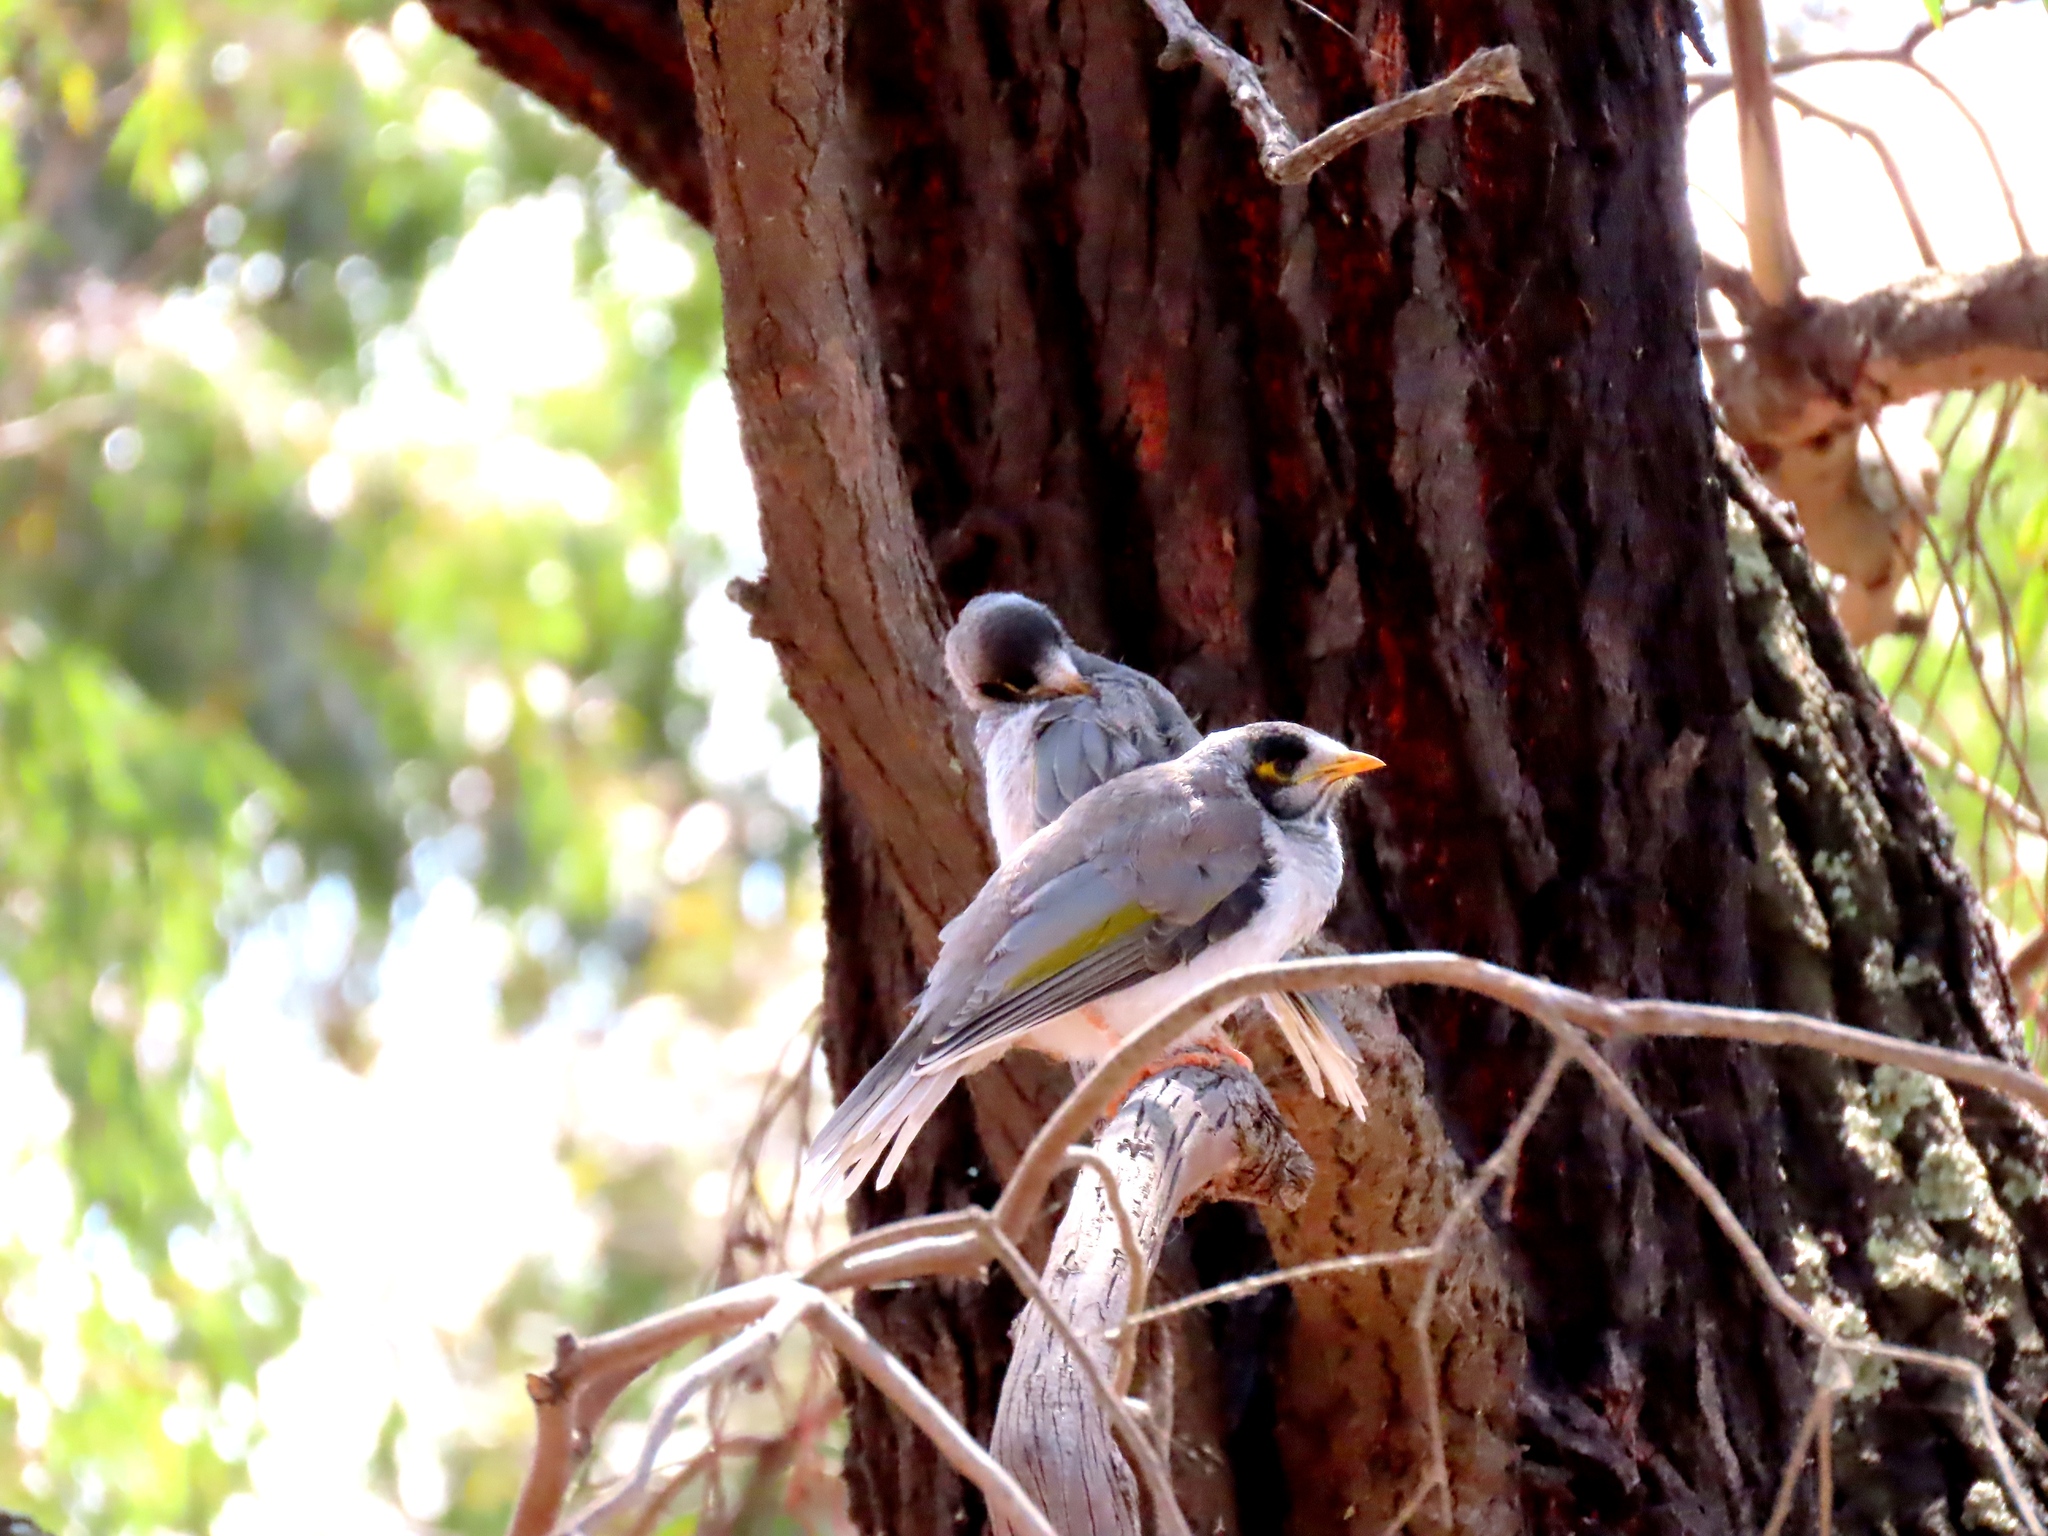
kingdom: Animalia
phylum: Chordata
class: Aves
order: Passeriformes
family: Meliphagidae
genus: Manorina
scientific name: Manorina melanocephala
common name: Noisy miner
